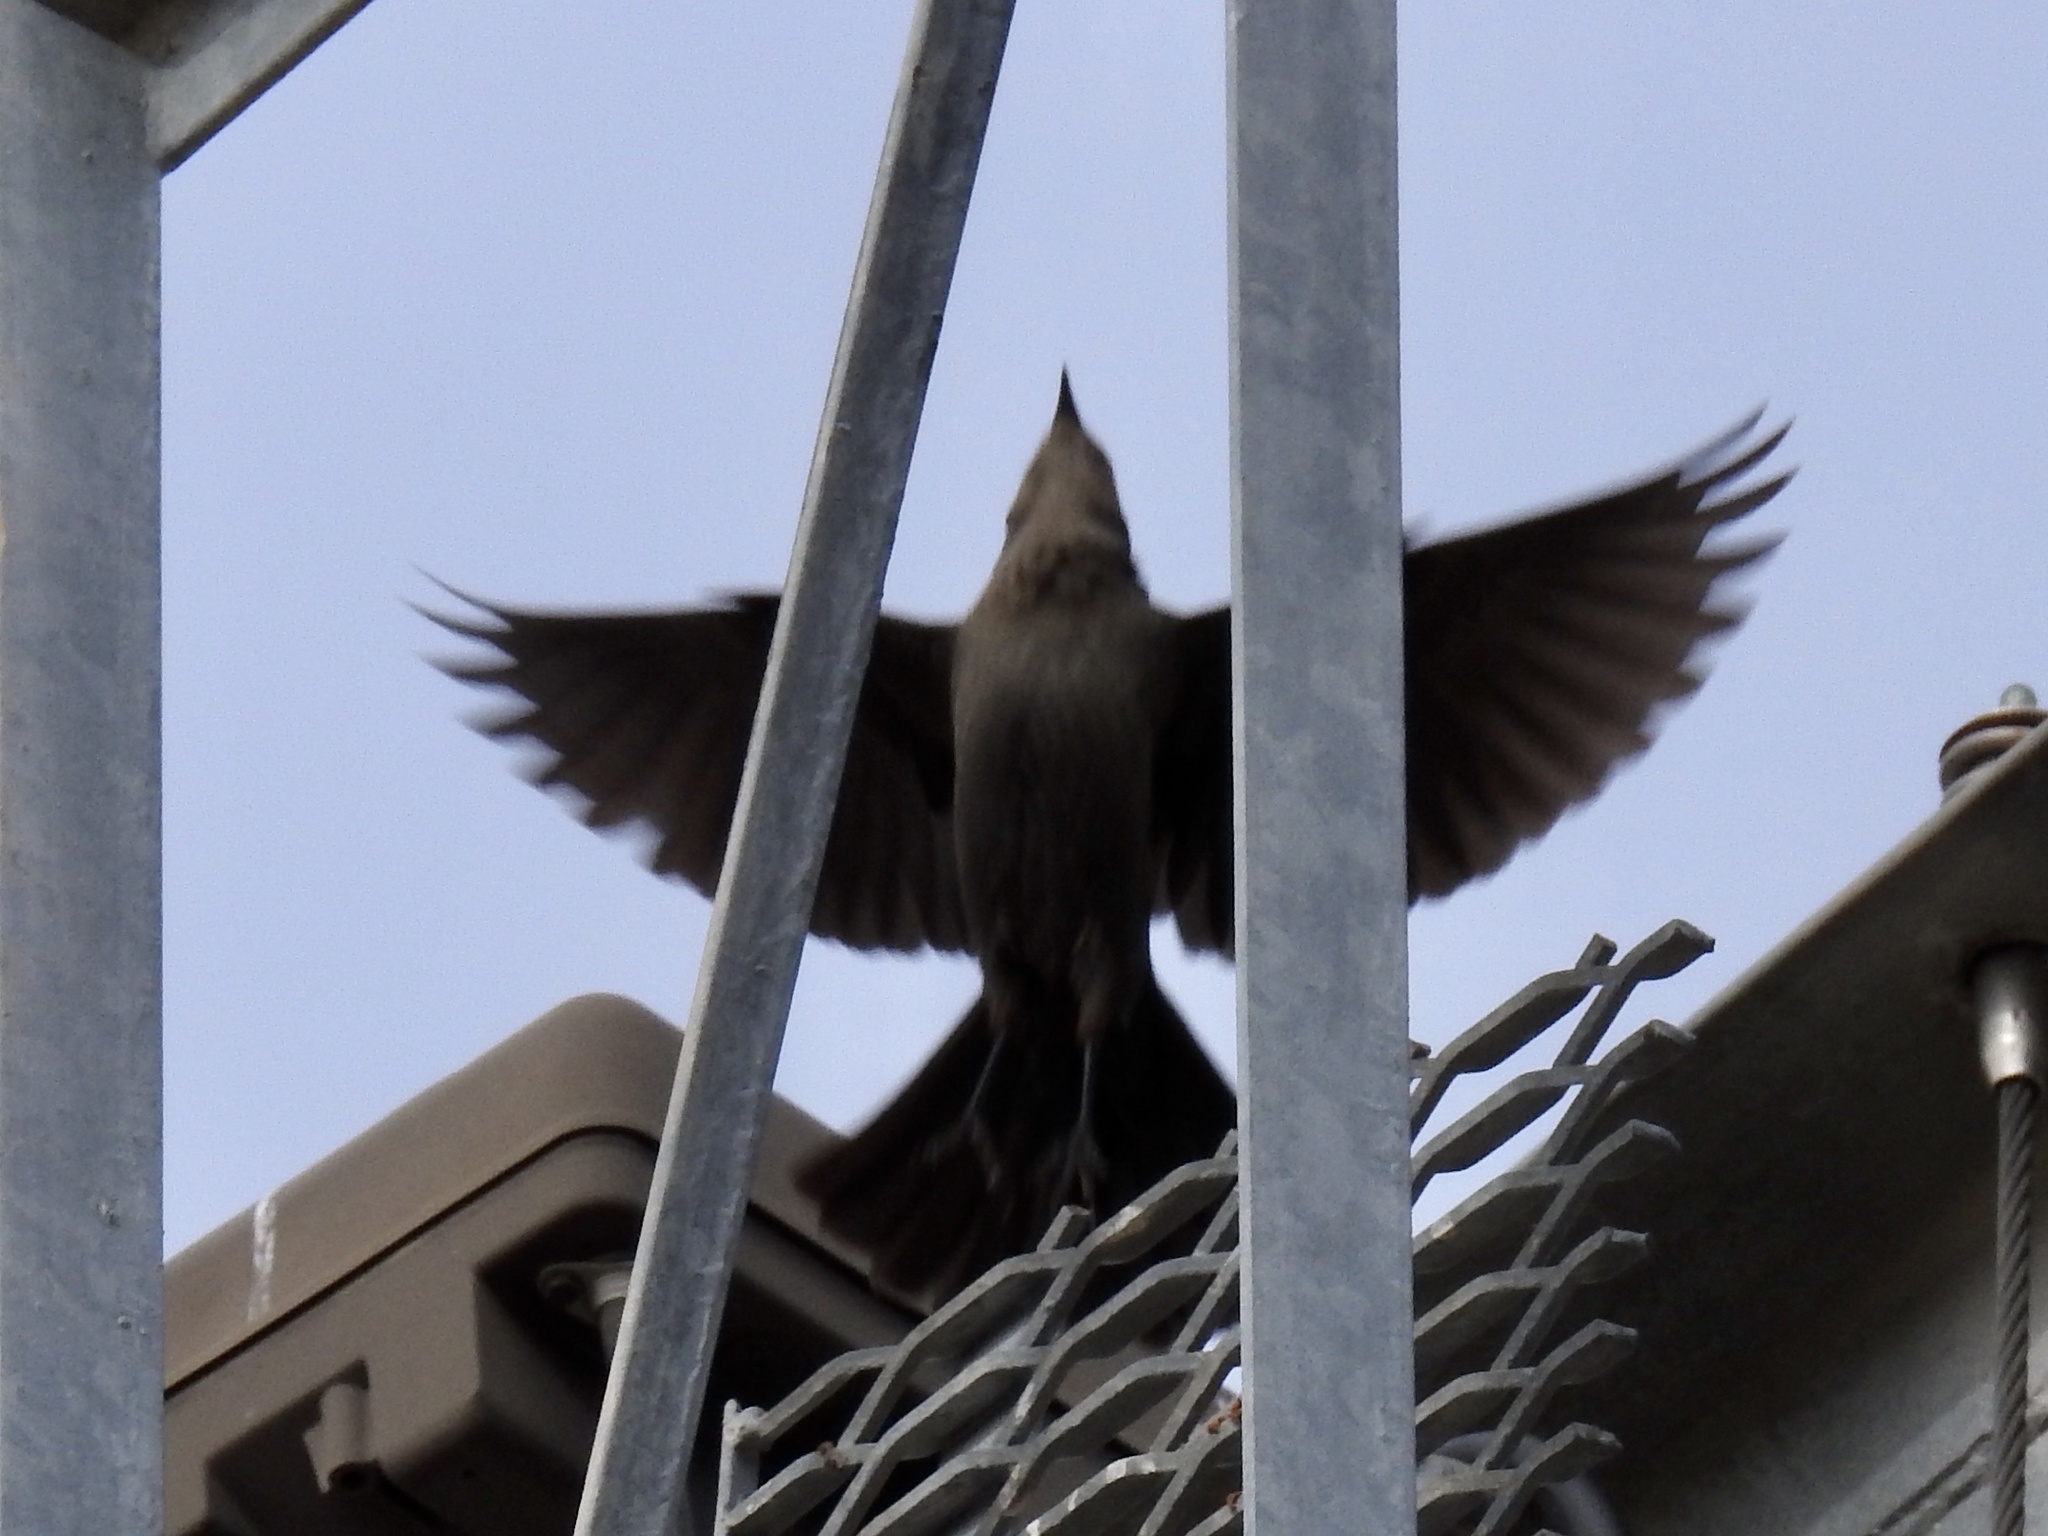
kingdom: Animalia
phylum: Chordata
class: Aves
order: Passeriformes
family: Sturnidae
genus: Sturnus
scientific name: Sturnus vulgaris
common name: Common starling
